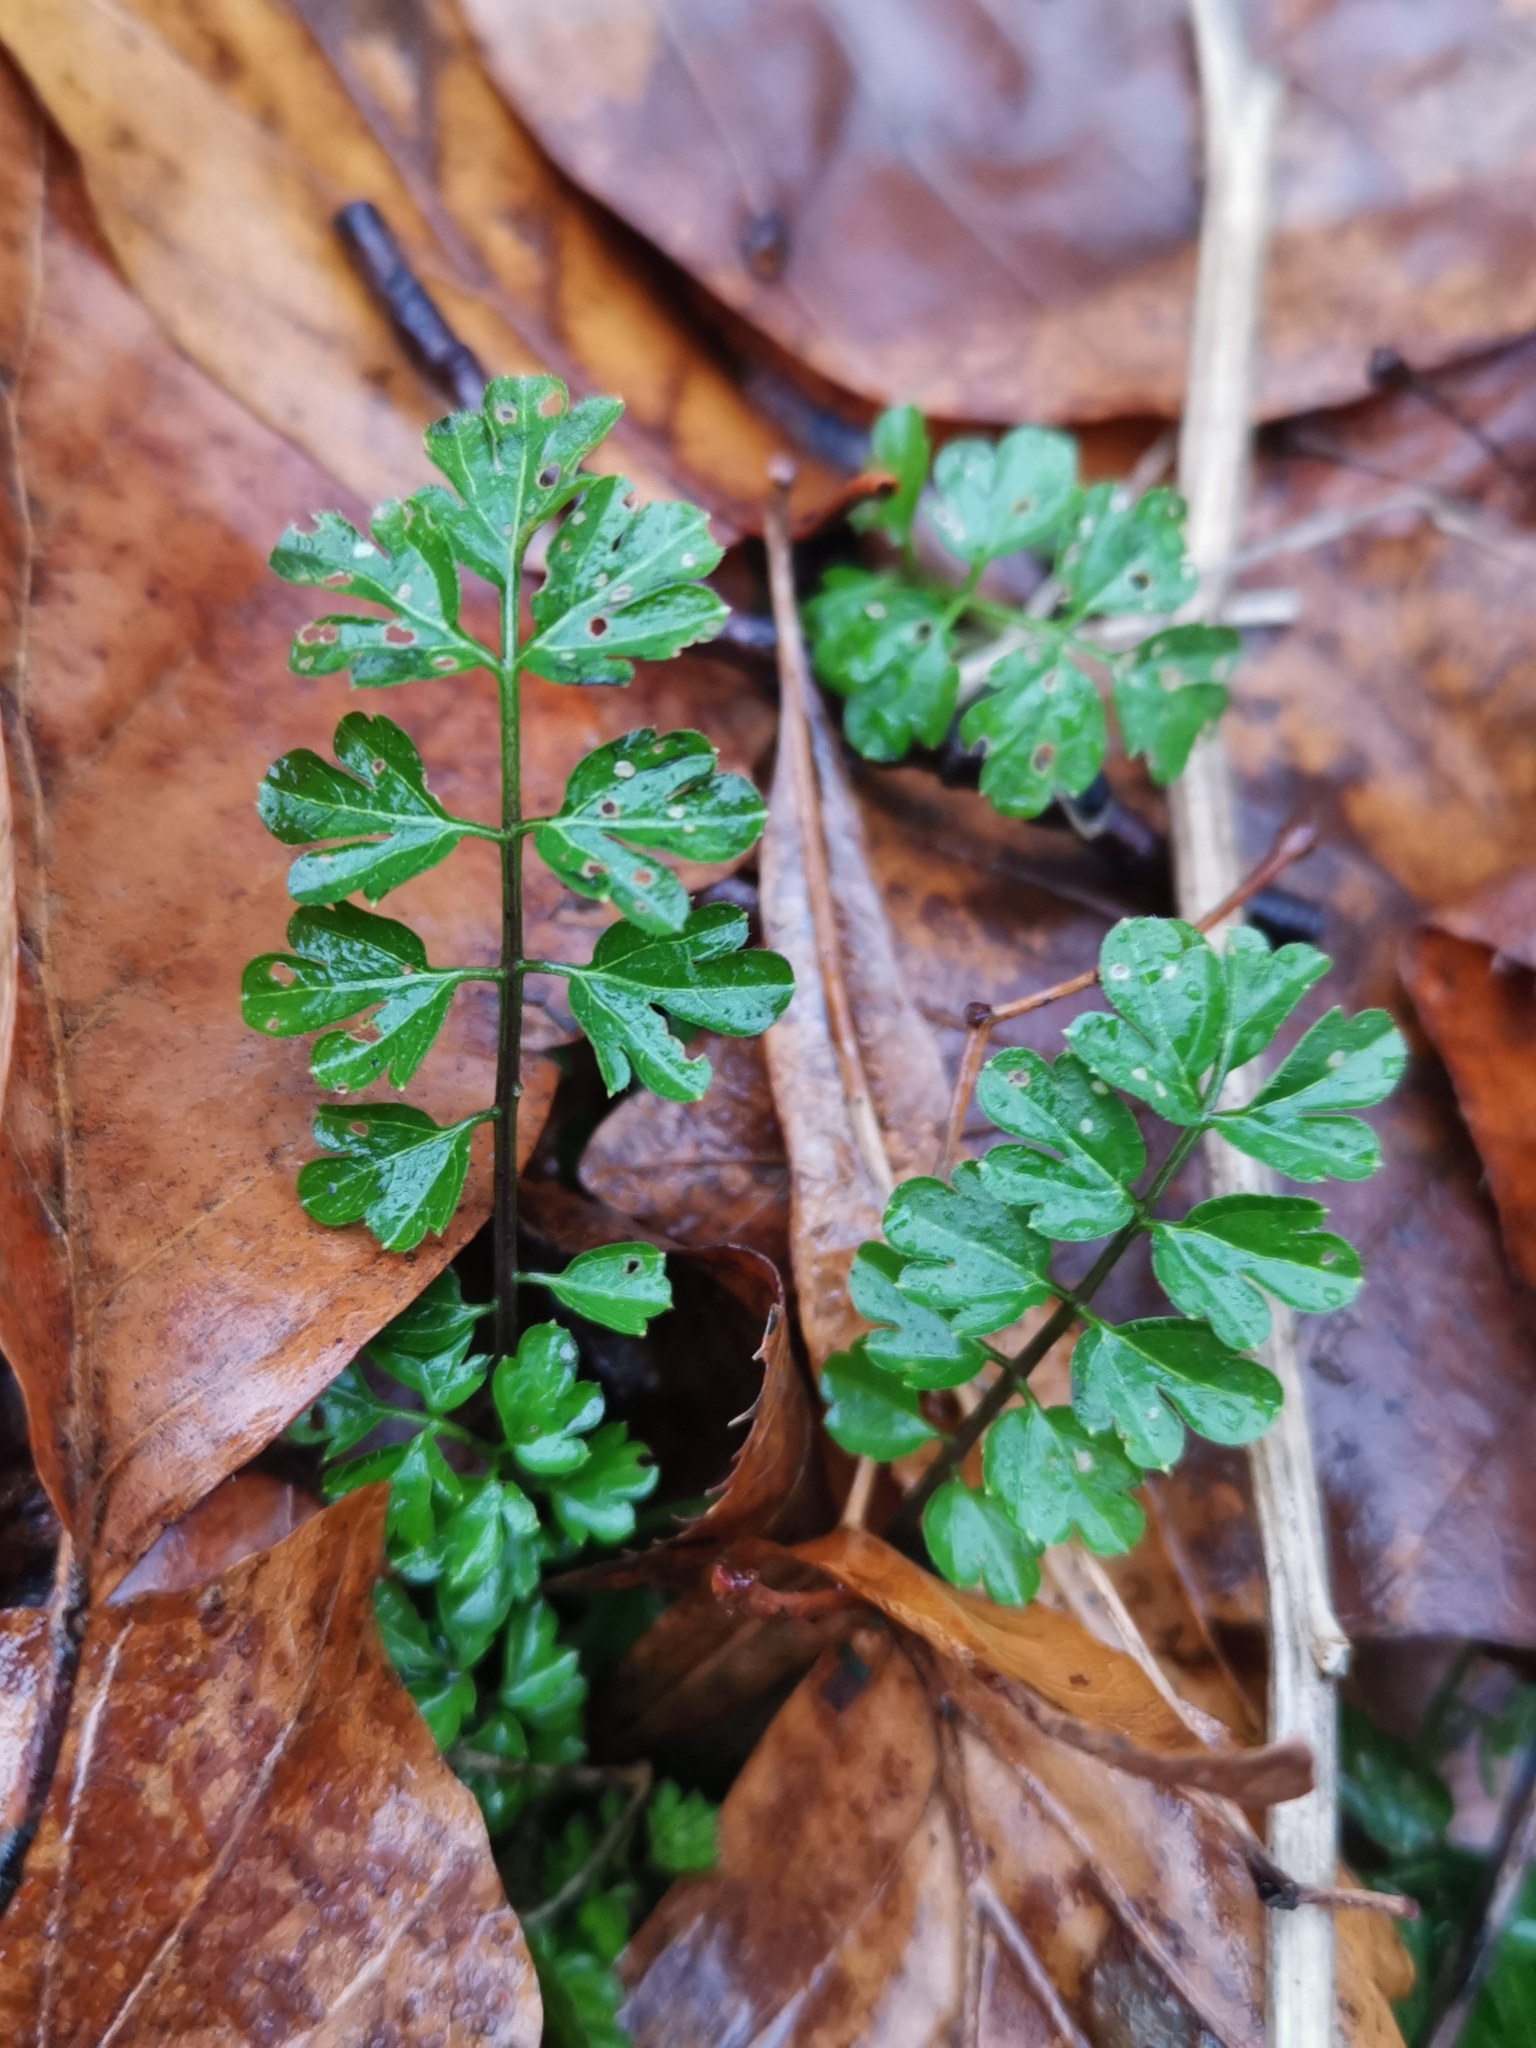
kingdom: Plantae
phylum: Tracheophyta
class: Magnoliopsida
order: Brassicales
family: Brassicaceae
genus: Cardamine
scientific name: Cardamine impatiens
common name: Narrow-leaved bitter-cress
